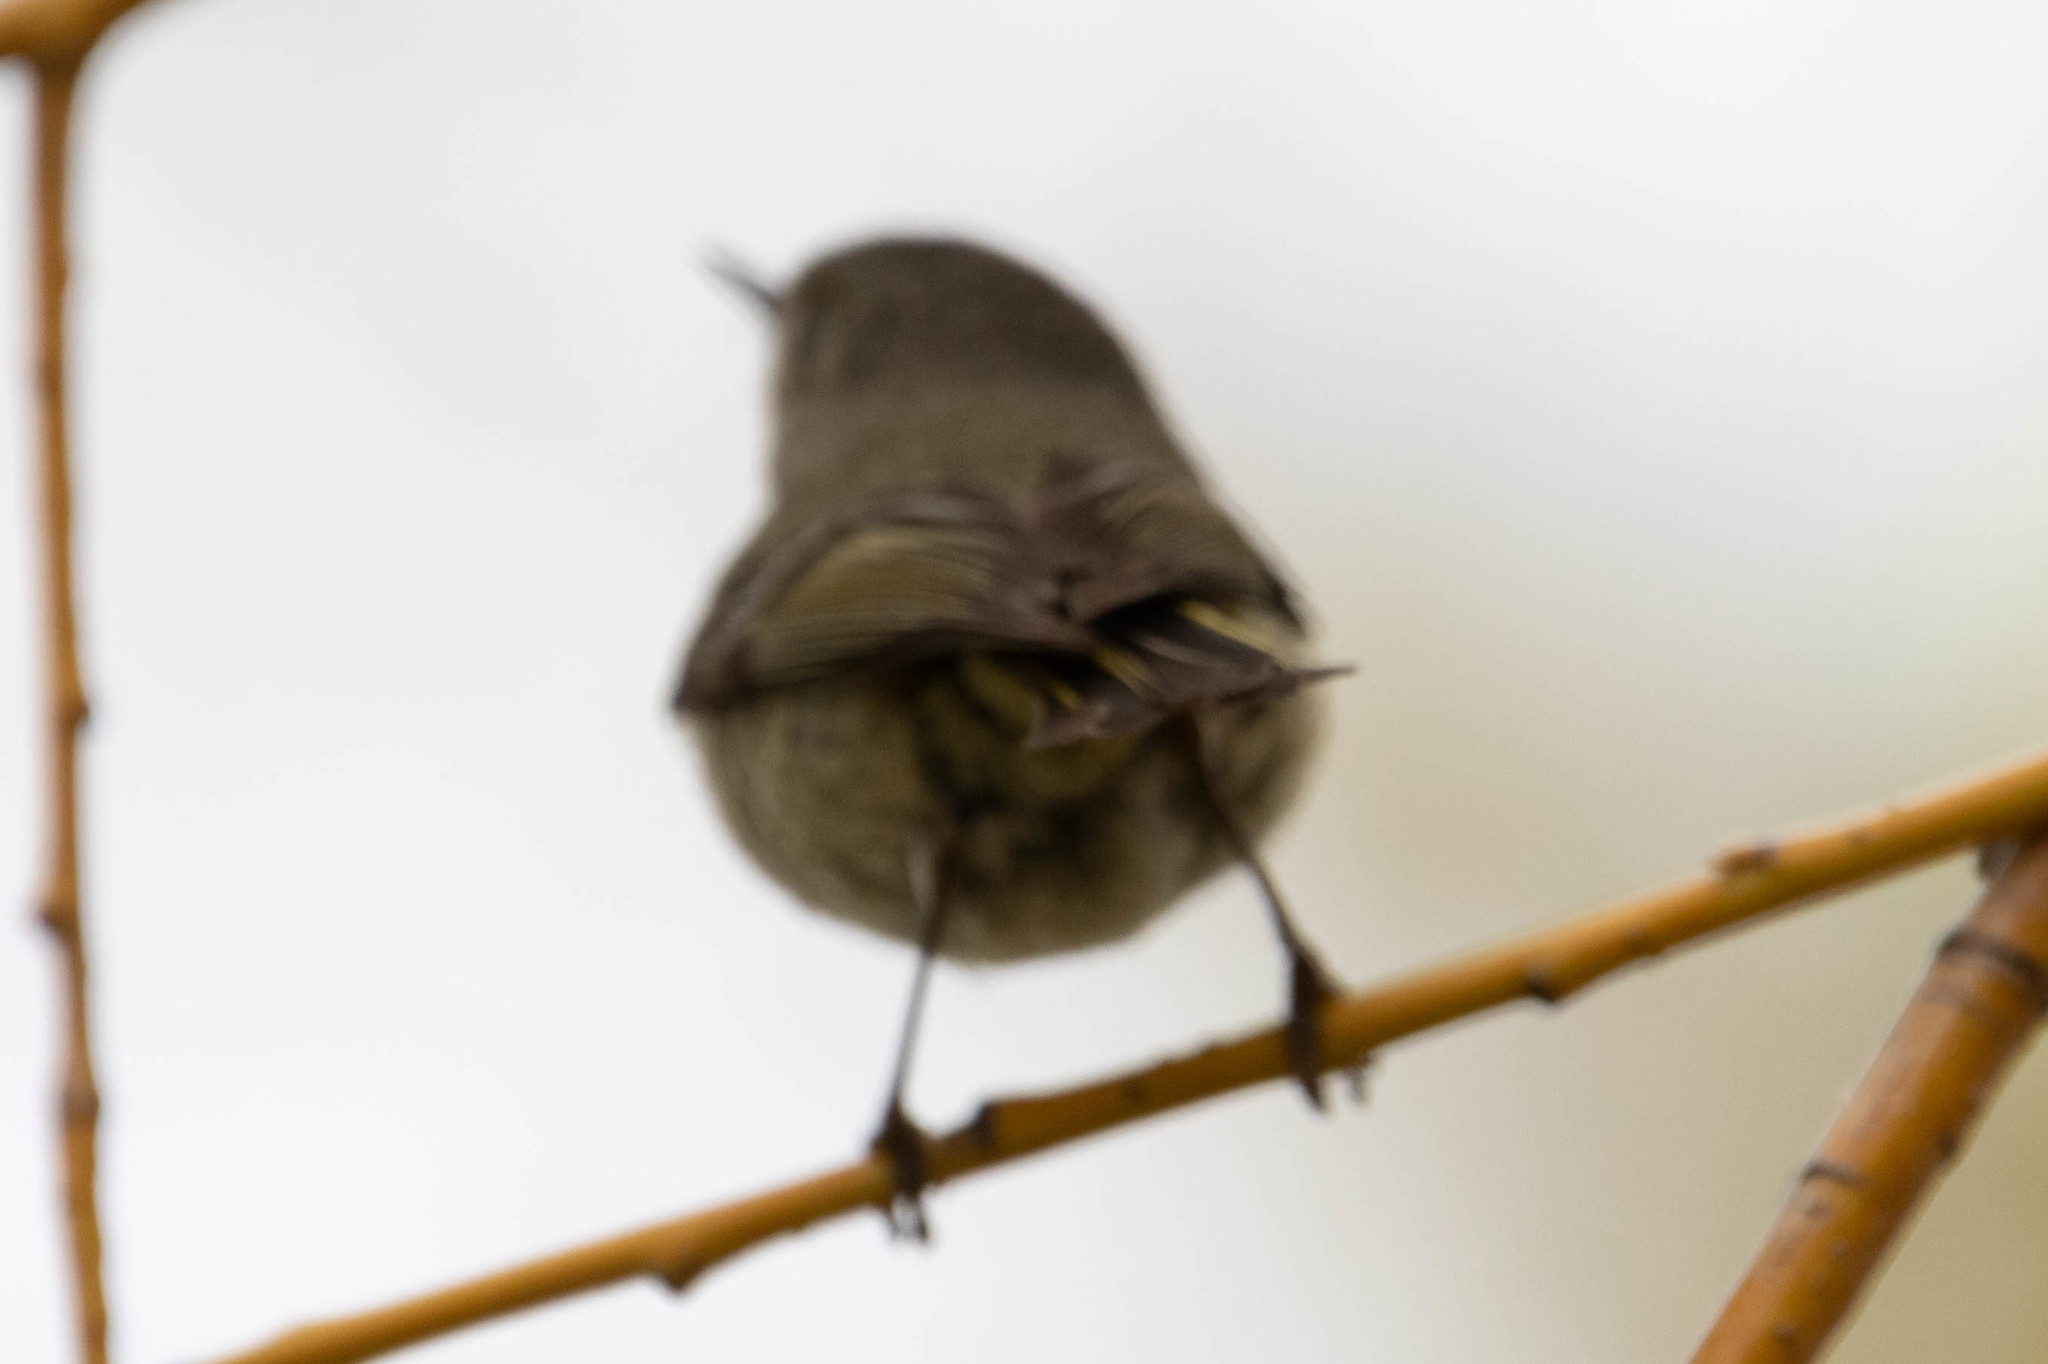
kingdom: Animalia
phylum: Chordata
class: Aves
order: Passeriformes
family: Regulidae
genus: Regulus
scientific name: Regulus calendula
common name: Ruby-crowned kinglet
